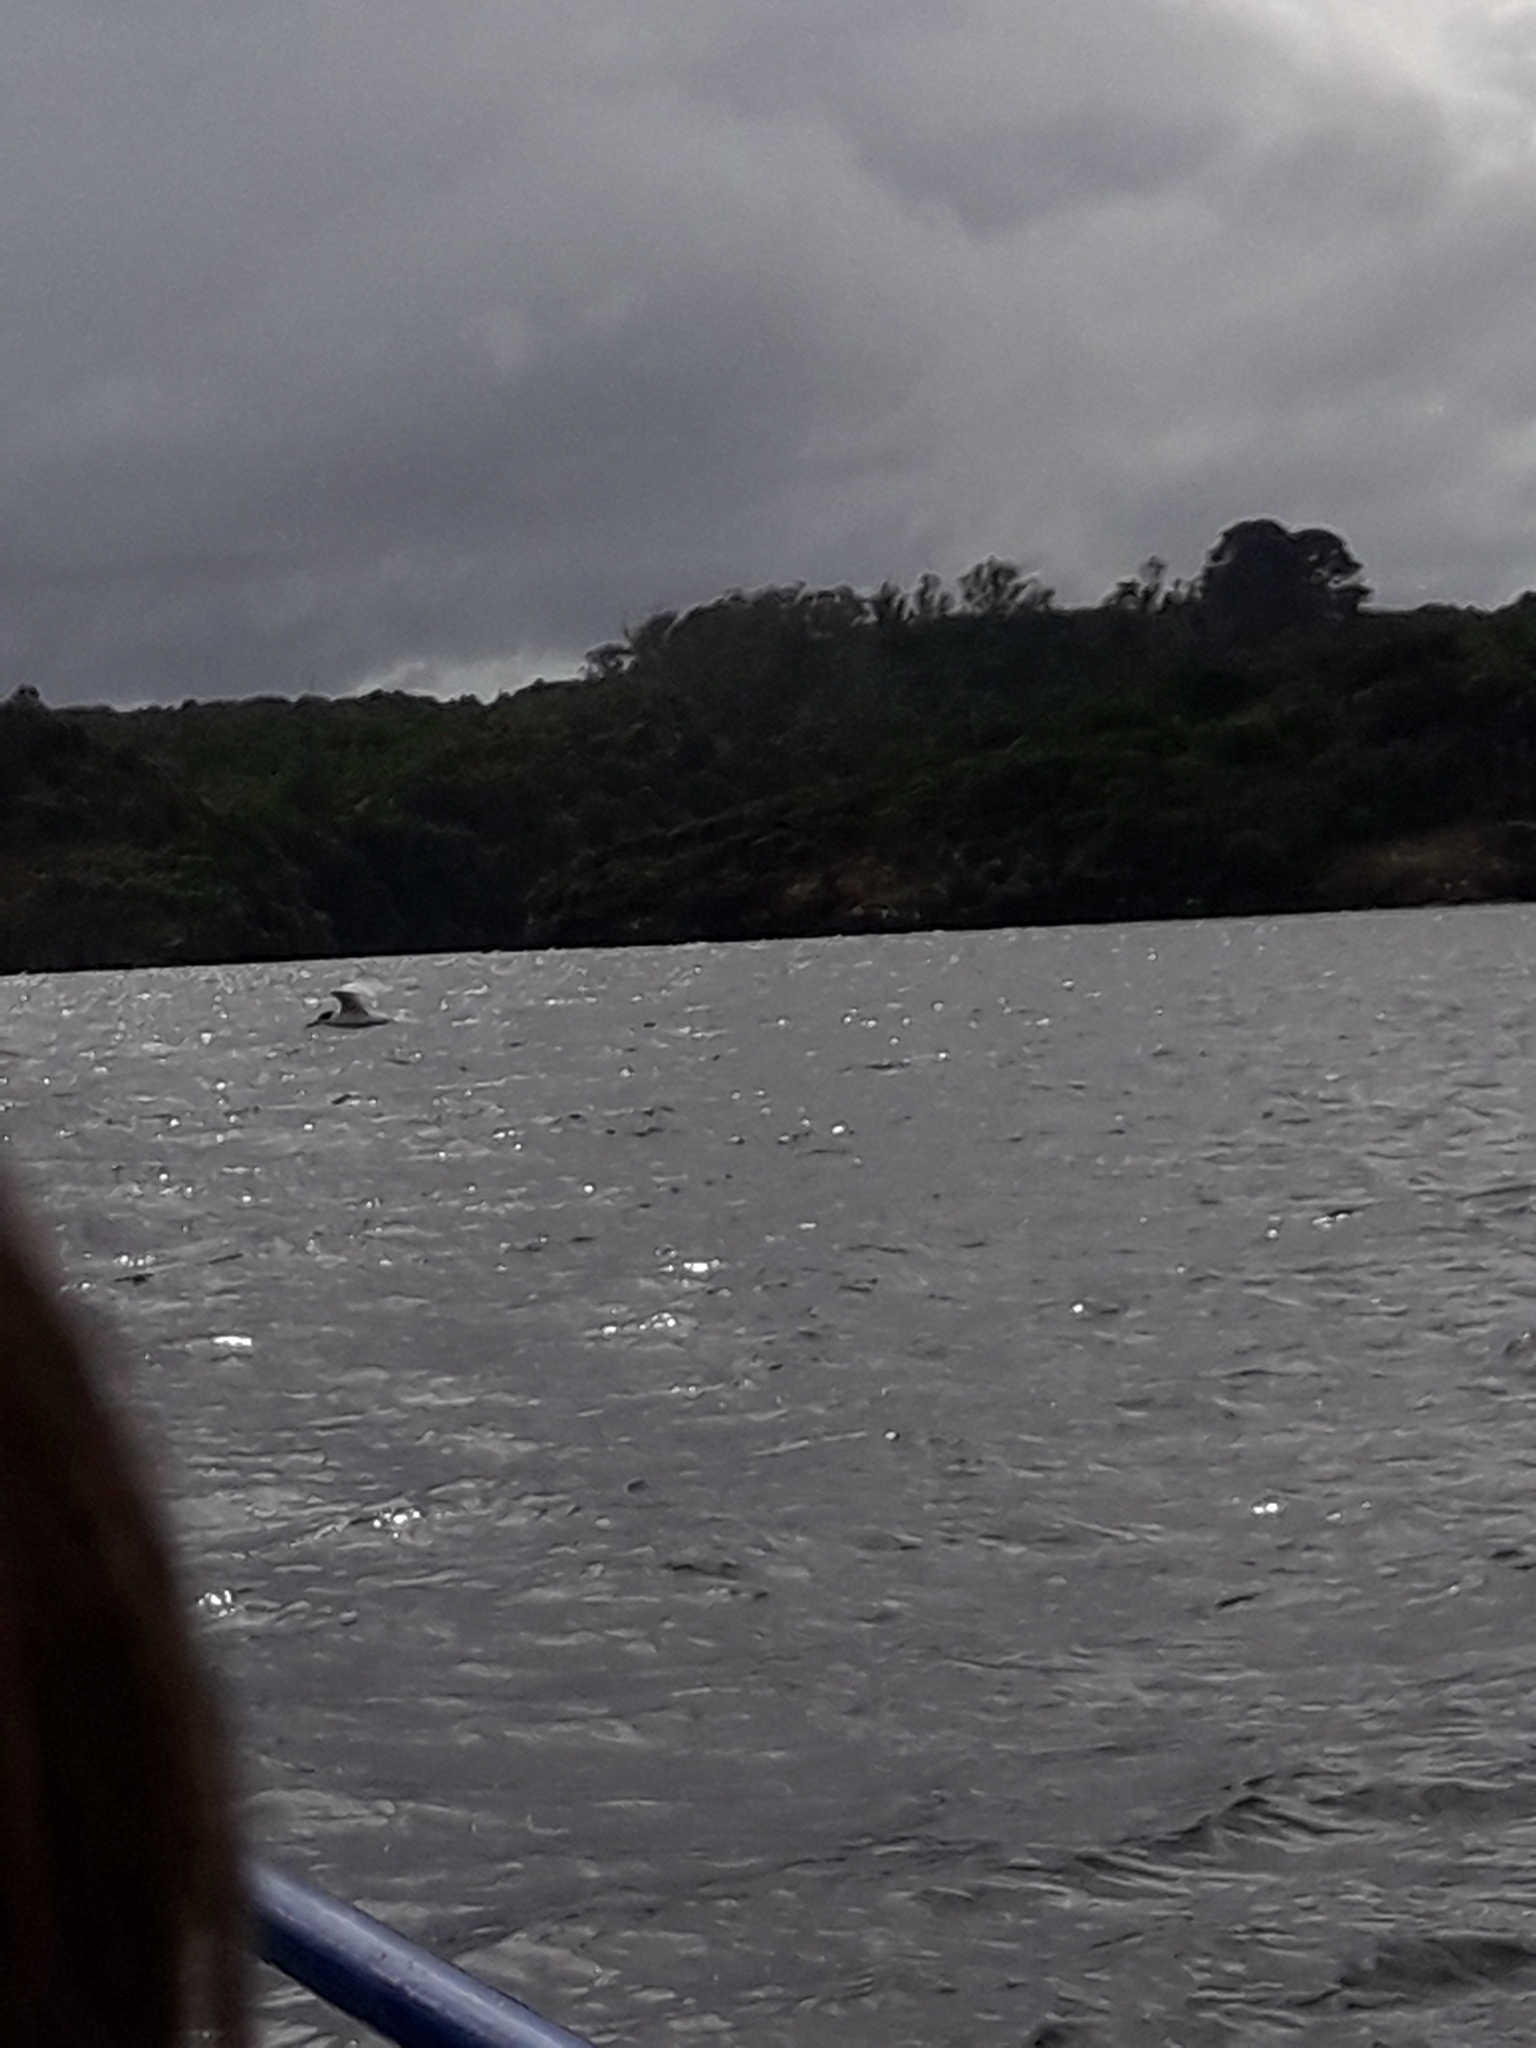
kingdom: Animalia
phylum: Chordata
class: Aves
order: Charadriiformes
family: Laridae
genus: Sterna
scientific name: Sterna striata
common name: White-fronted tern
